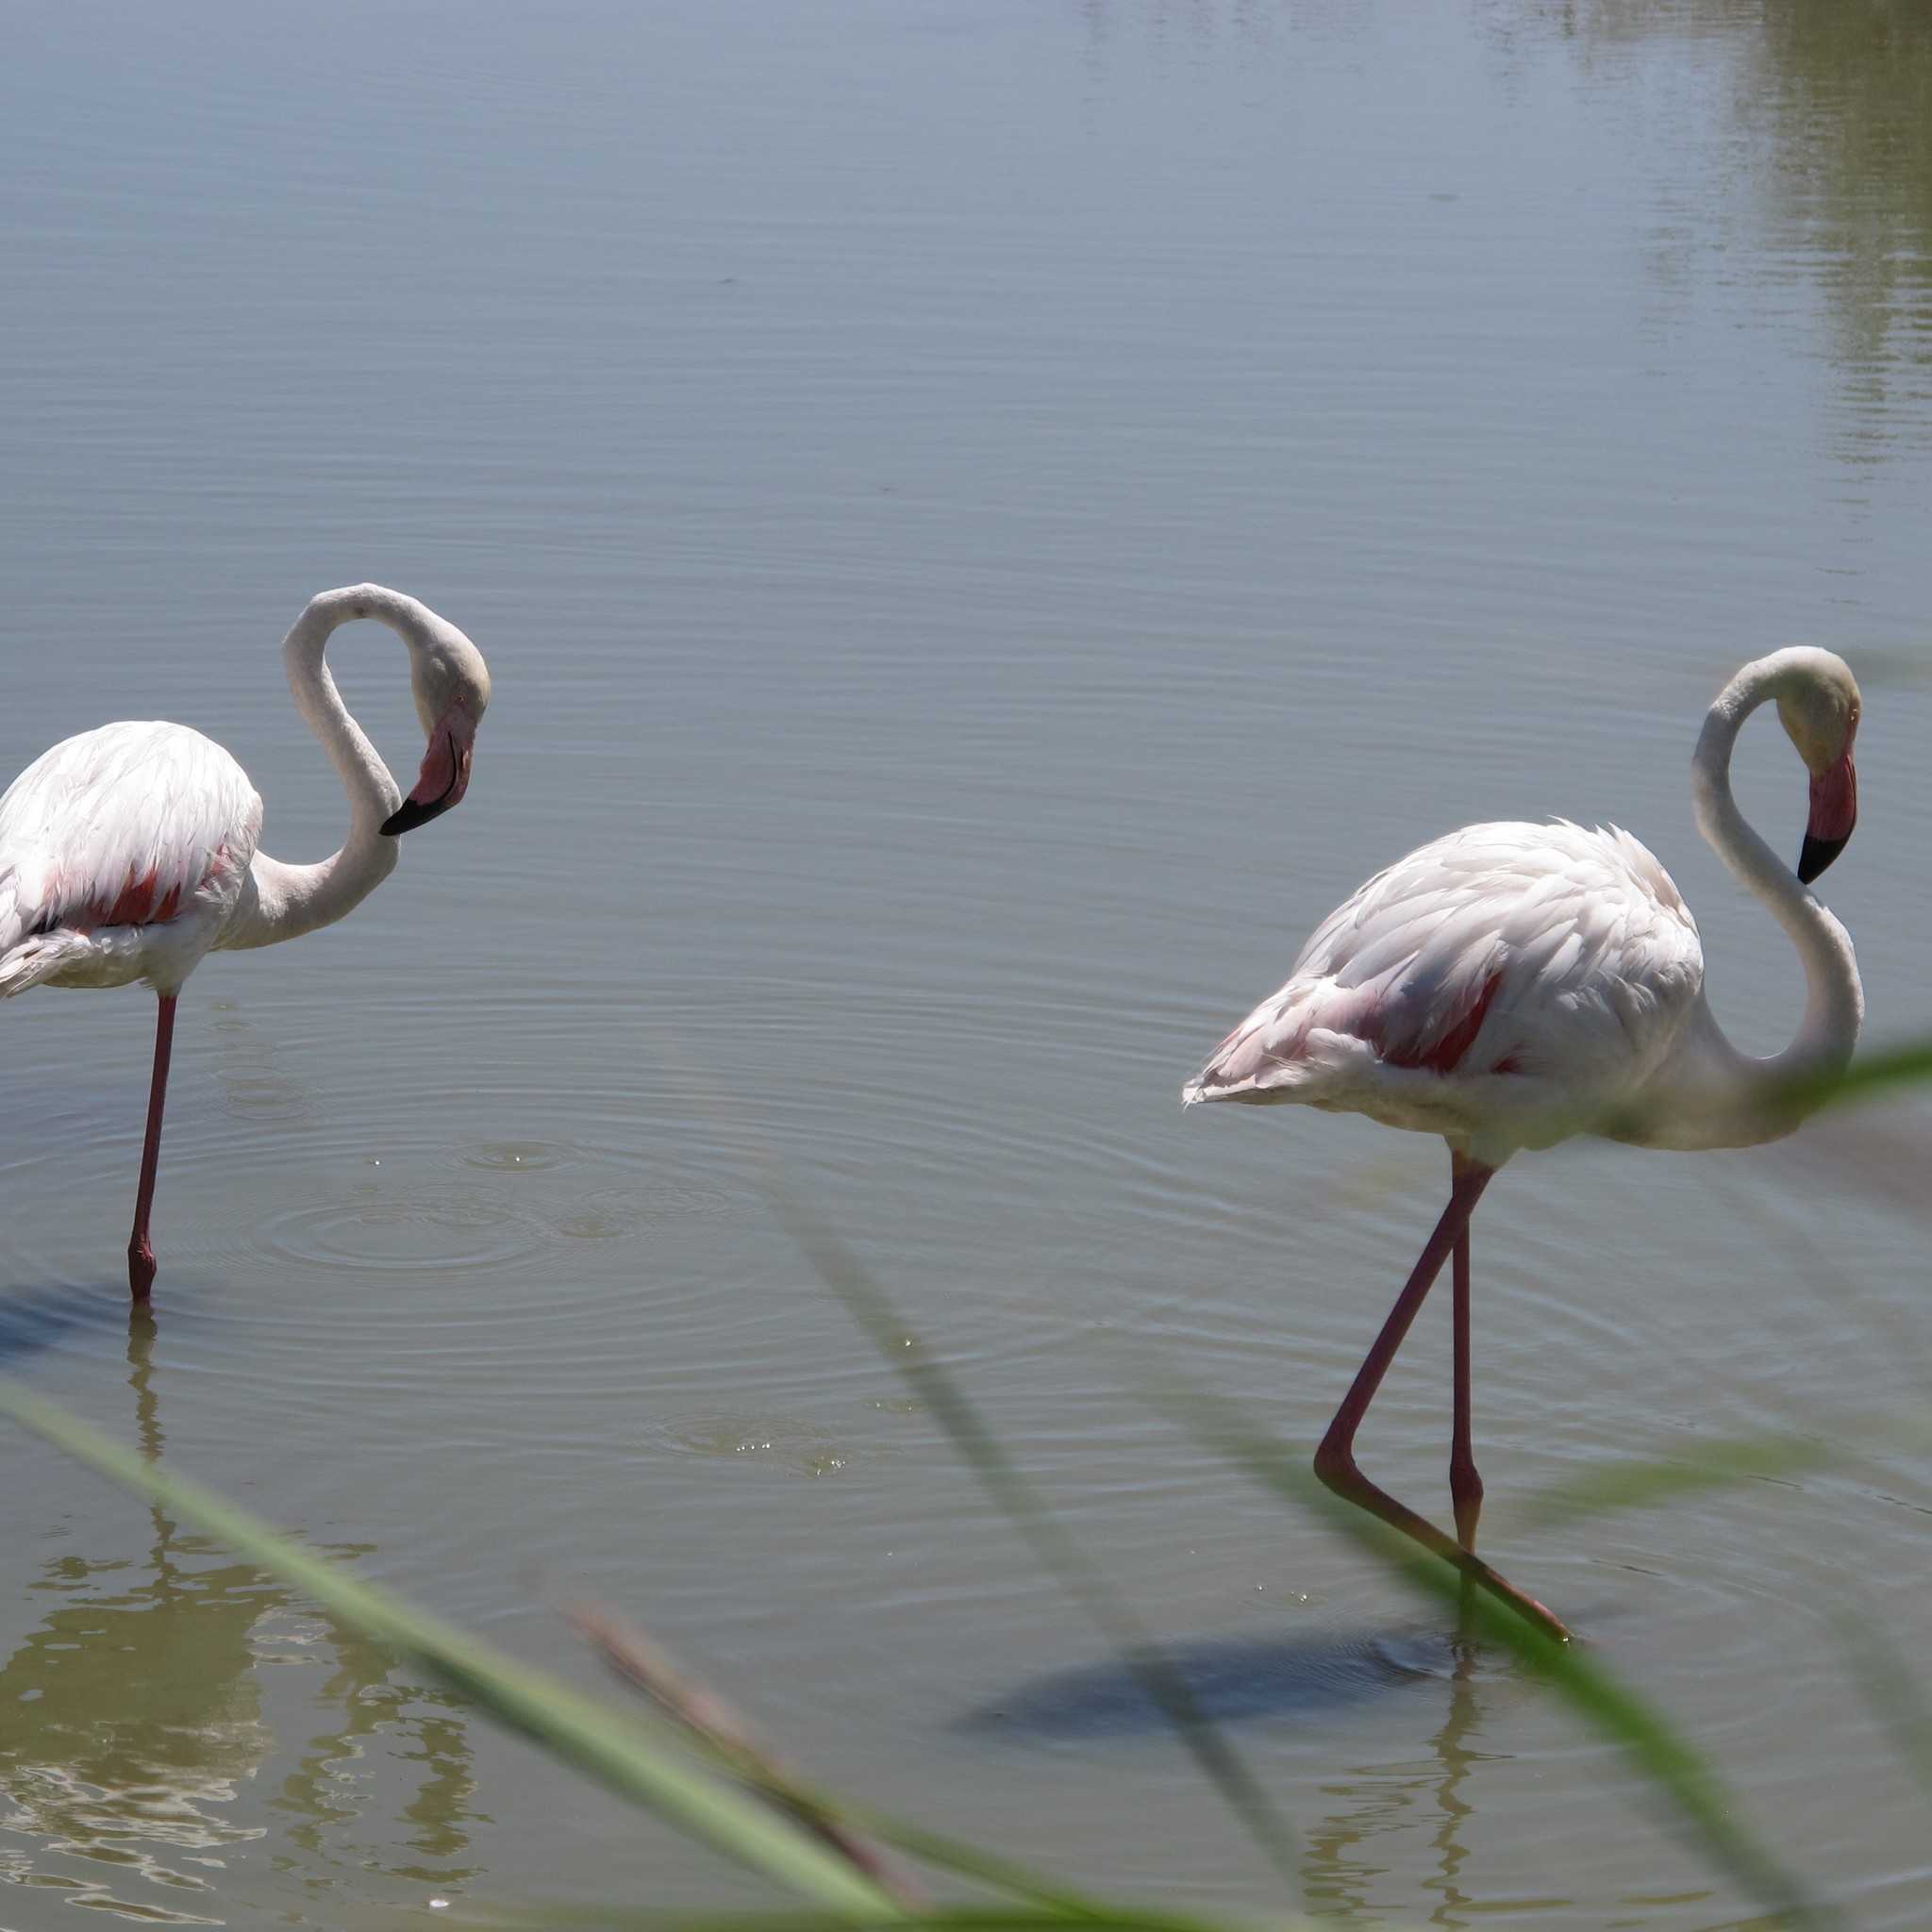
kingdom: Animalia
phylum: Chordata
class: Aves
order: Phoenicopteriformes
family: Phoenicopteridae
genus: Phoenicopterus
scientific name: Phoenicopterus roseus
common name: Greater flamingo
